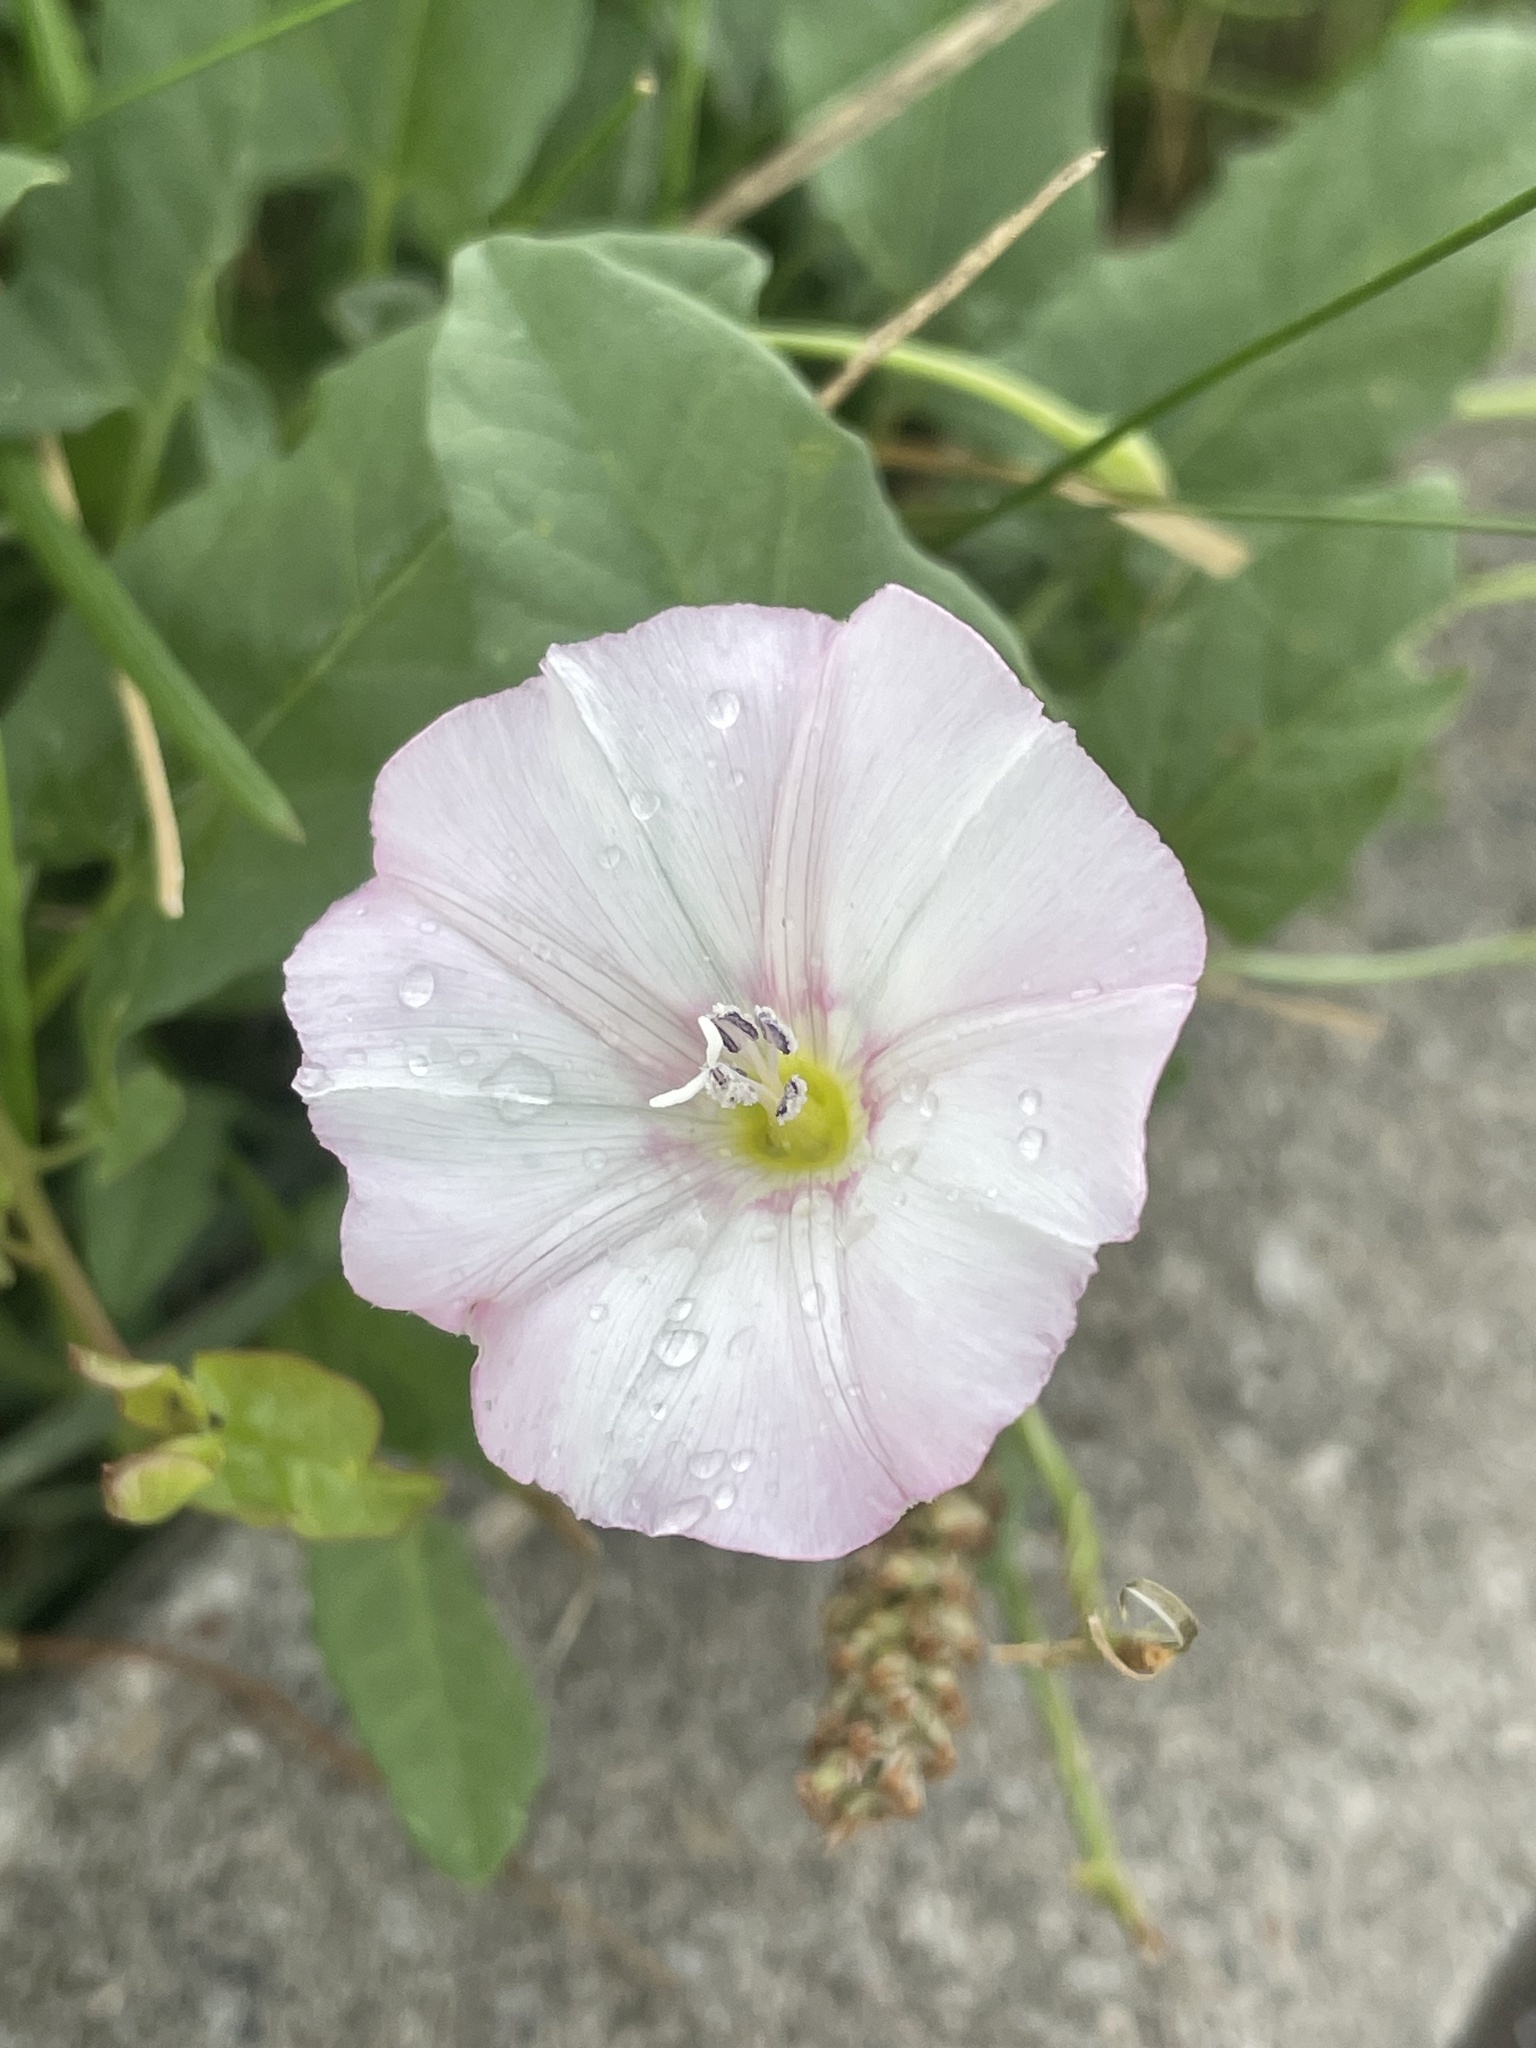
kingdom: Plantae
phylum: Tracheophyta
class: Magnoliopsida
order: Solanales
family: Convolvulaceae
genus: Convolvulus
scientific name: Convolvulus arvensis
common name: Field bindweed
